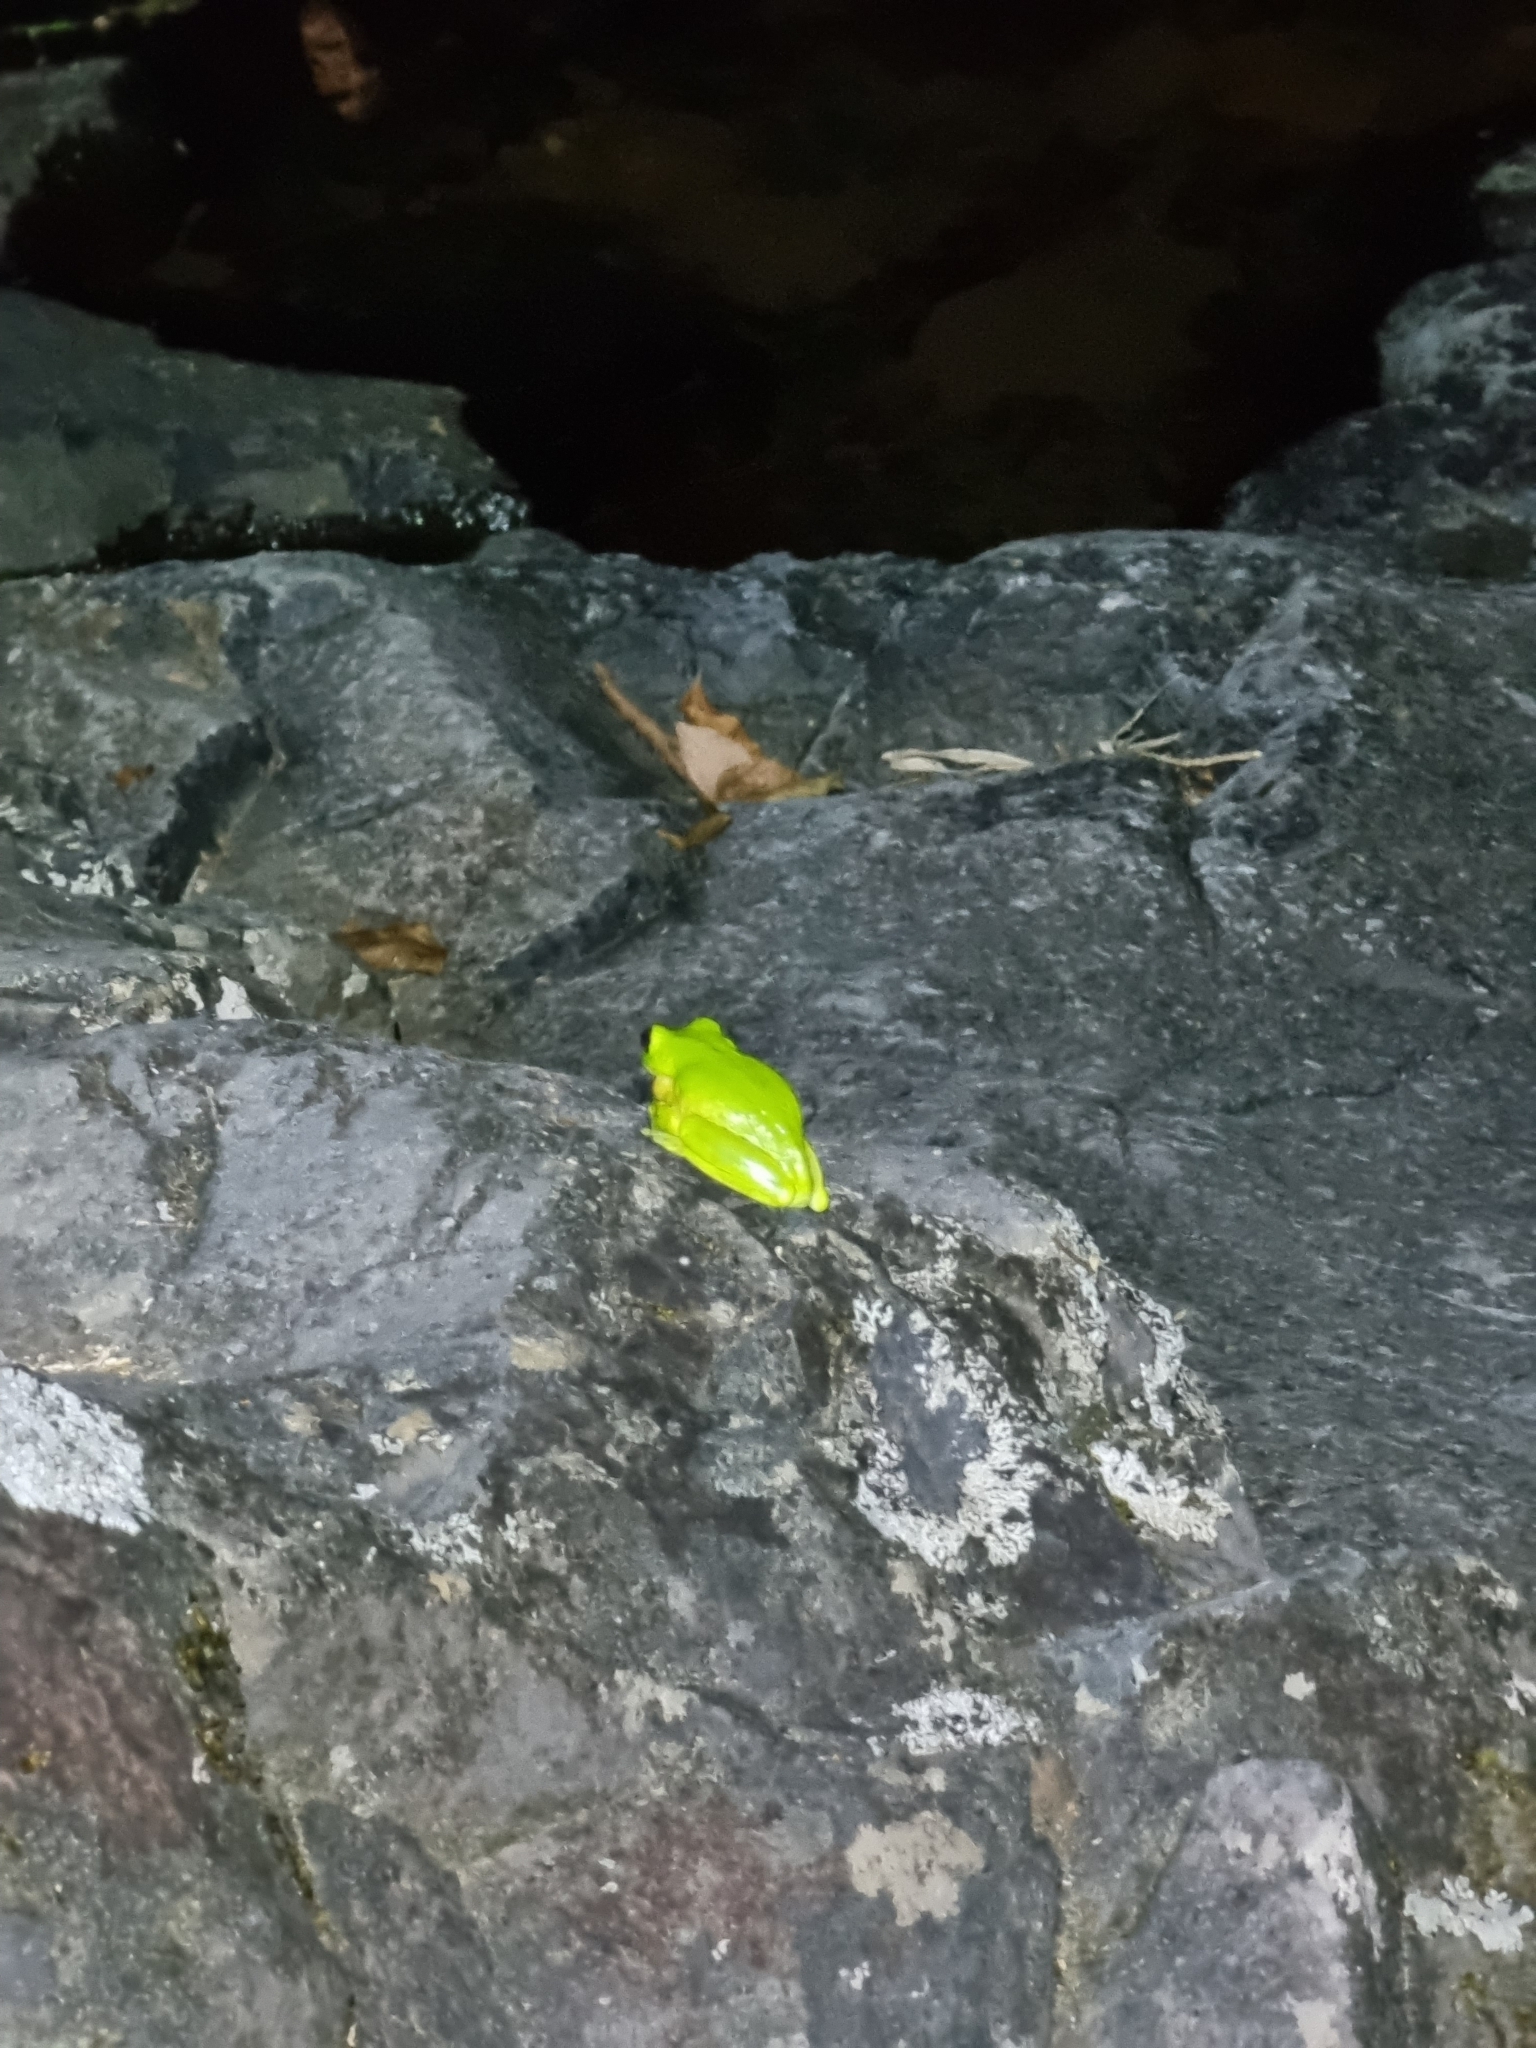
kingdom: Animalia
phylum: Chordata
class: Amphibia
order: Anura
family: Pelodryadidae
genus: Ranoidea
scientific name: Ranoidea chloris
